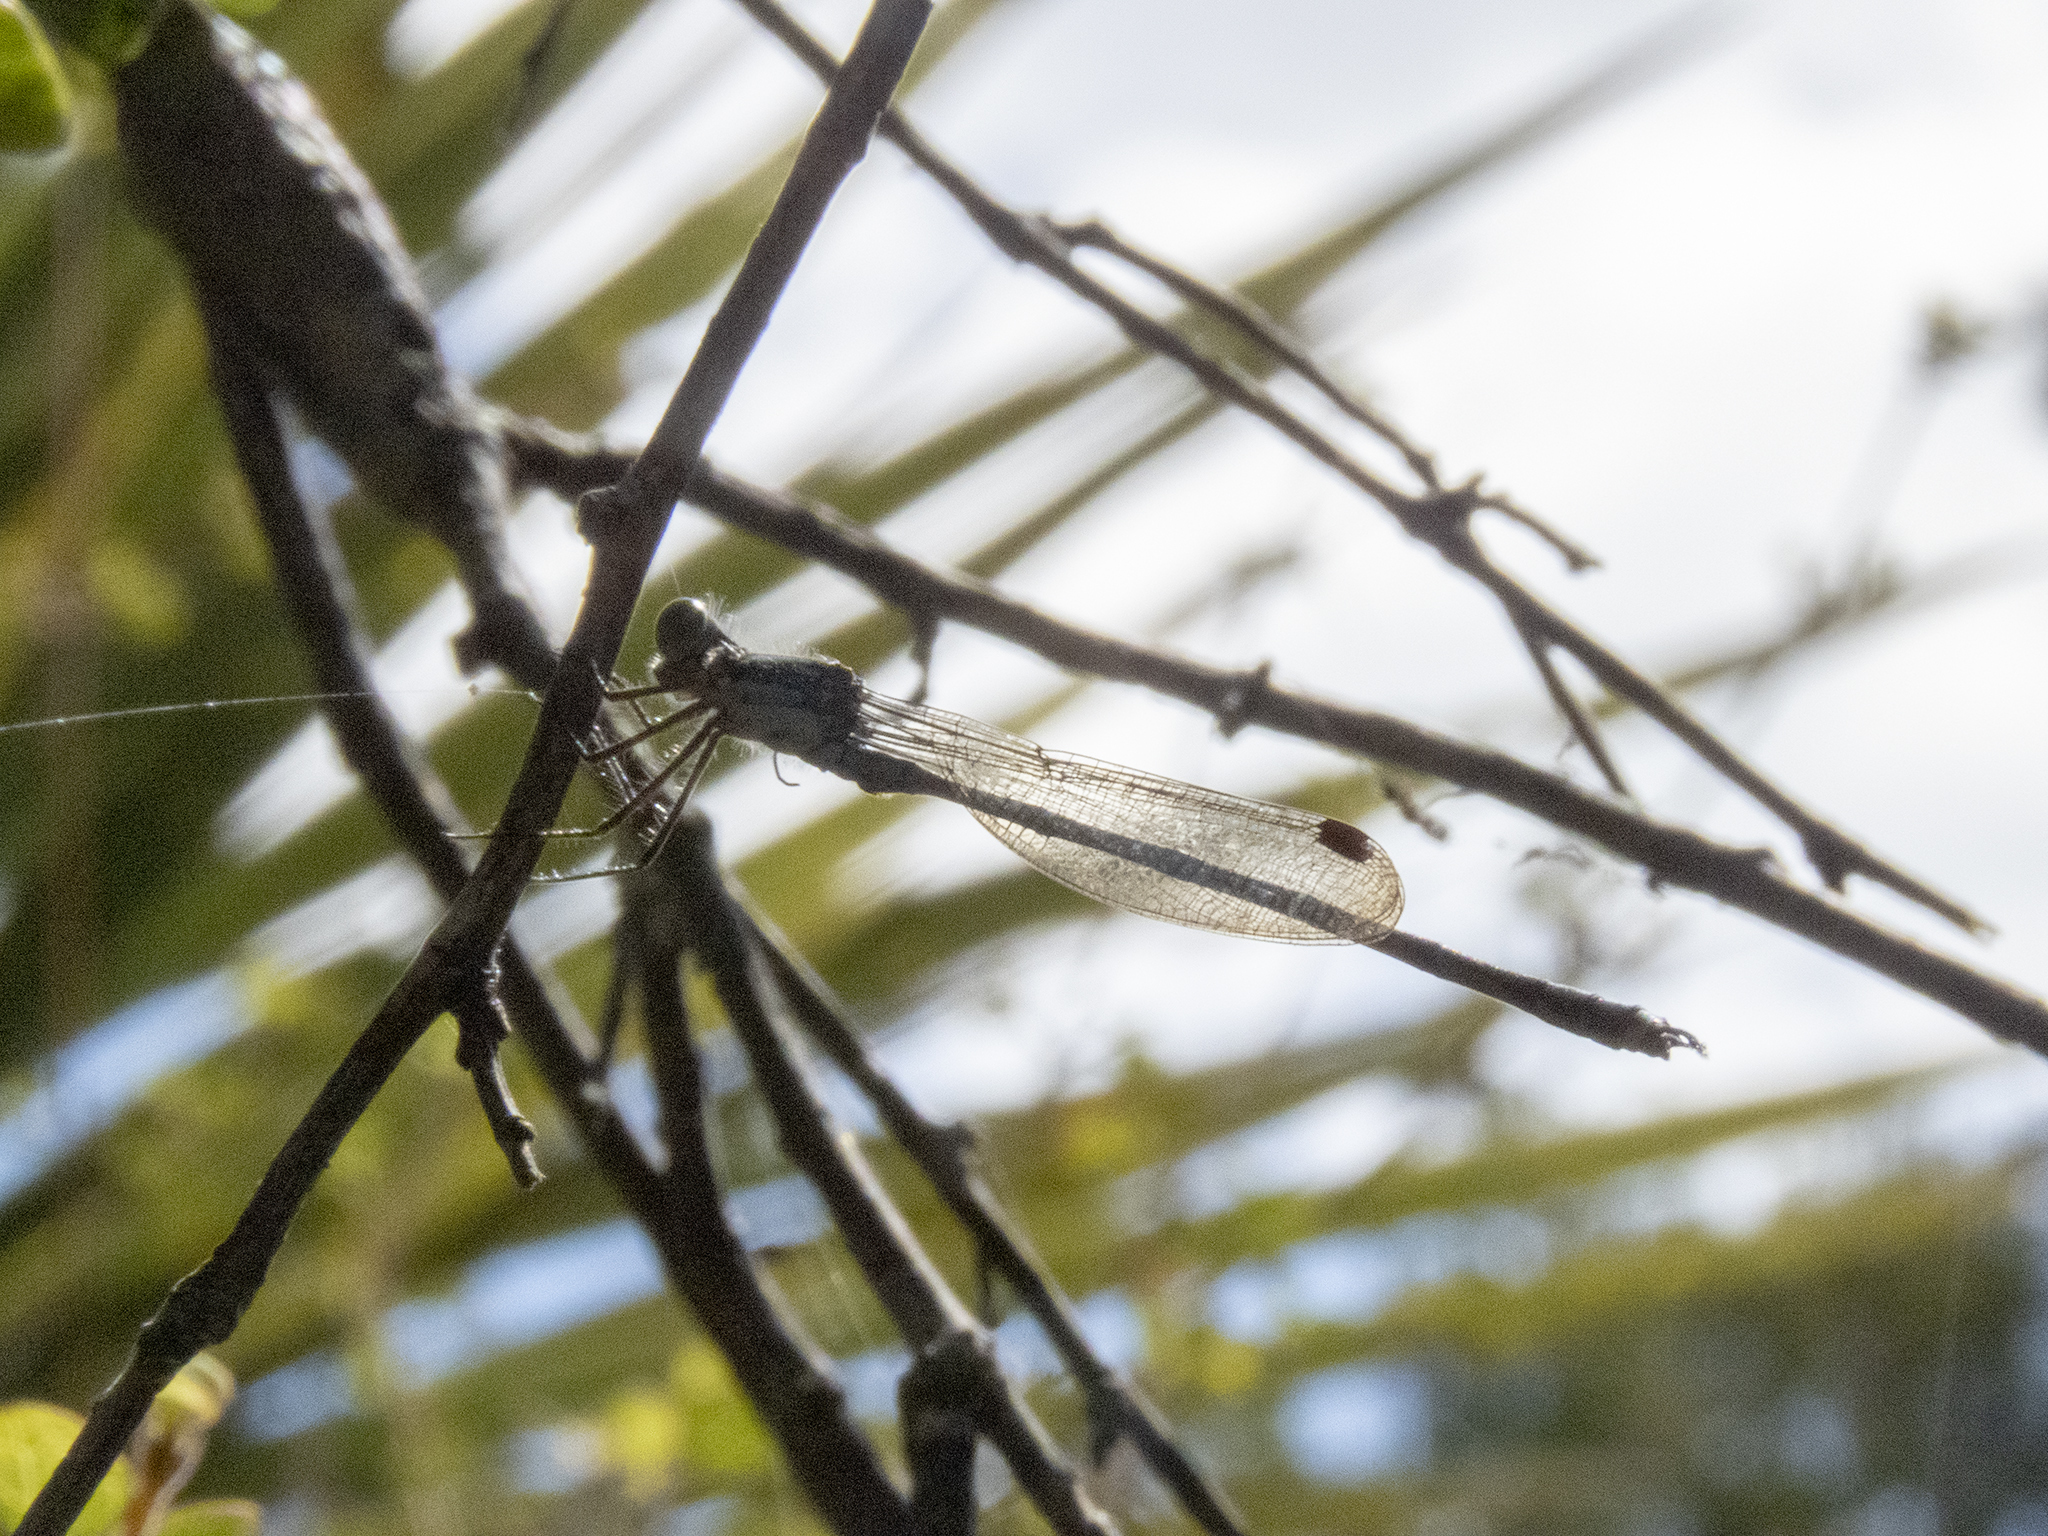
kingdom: Animalia
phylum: Arthropoda
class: Insecta
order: Odonata
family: Lestidae
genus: Austrolestes
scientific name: Austrolestes colensonis
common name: Blue damselfly
